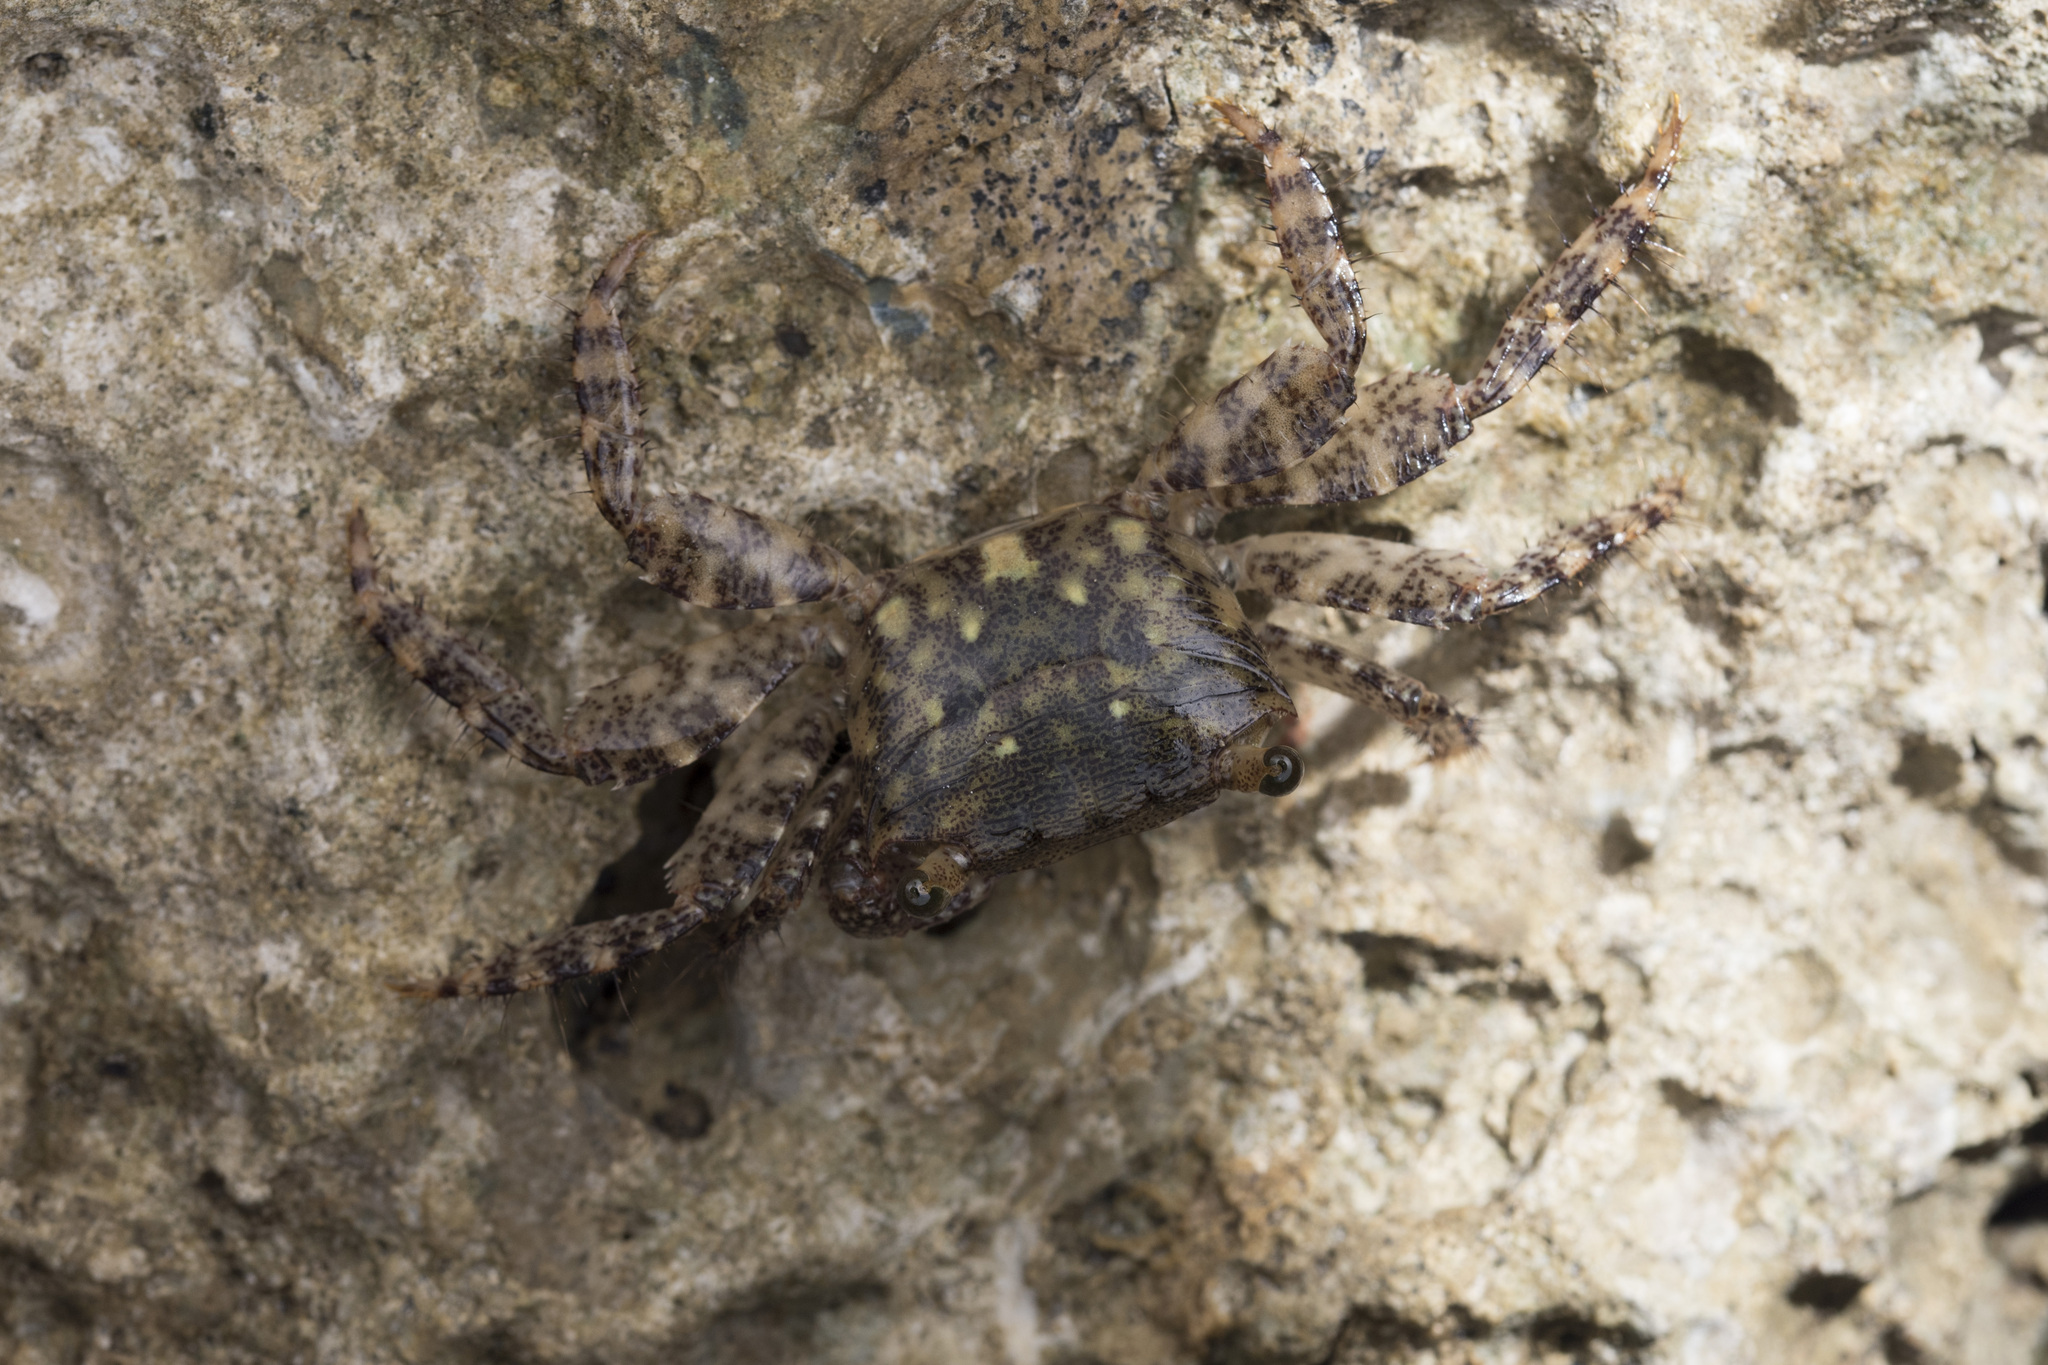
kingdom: Animalia
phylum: Arthropoda
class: Malacostraca
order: Decapoda
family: Grapsidae
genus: Metopograpsus
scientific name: Metopograpsus thukuhar
